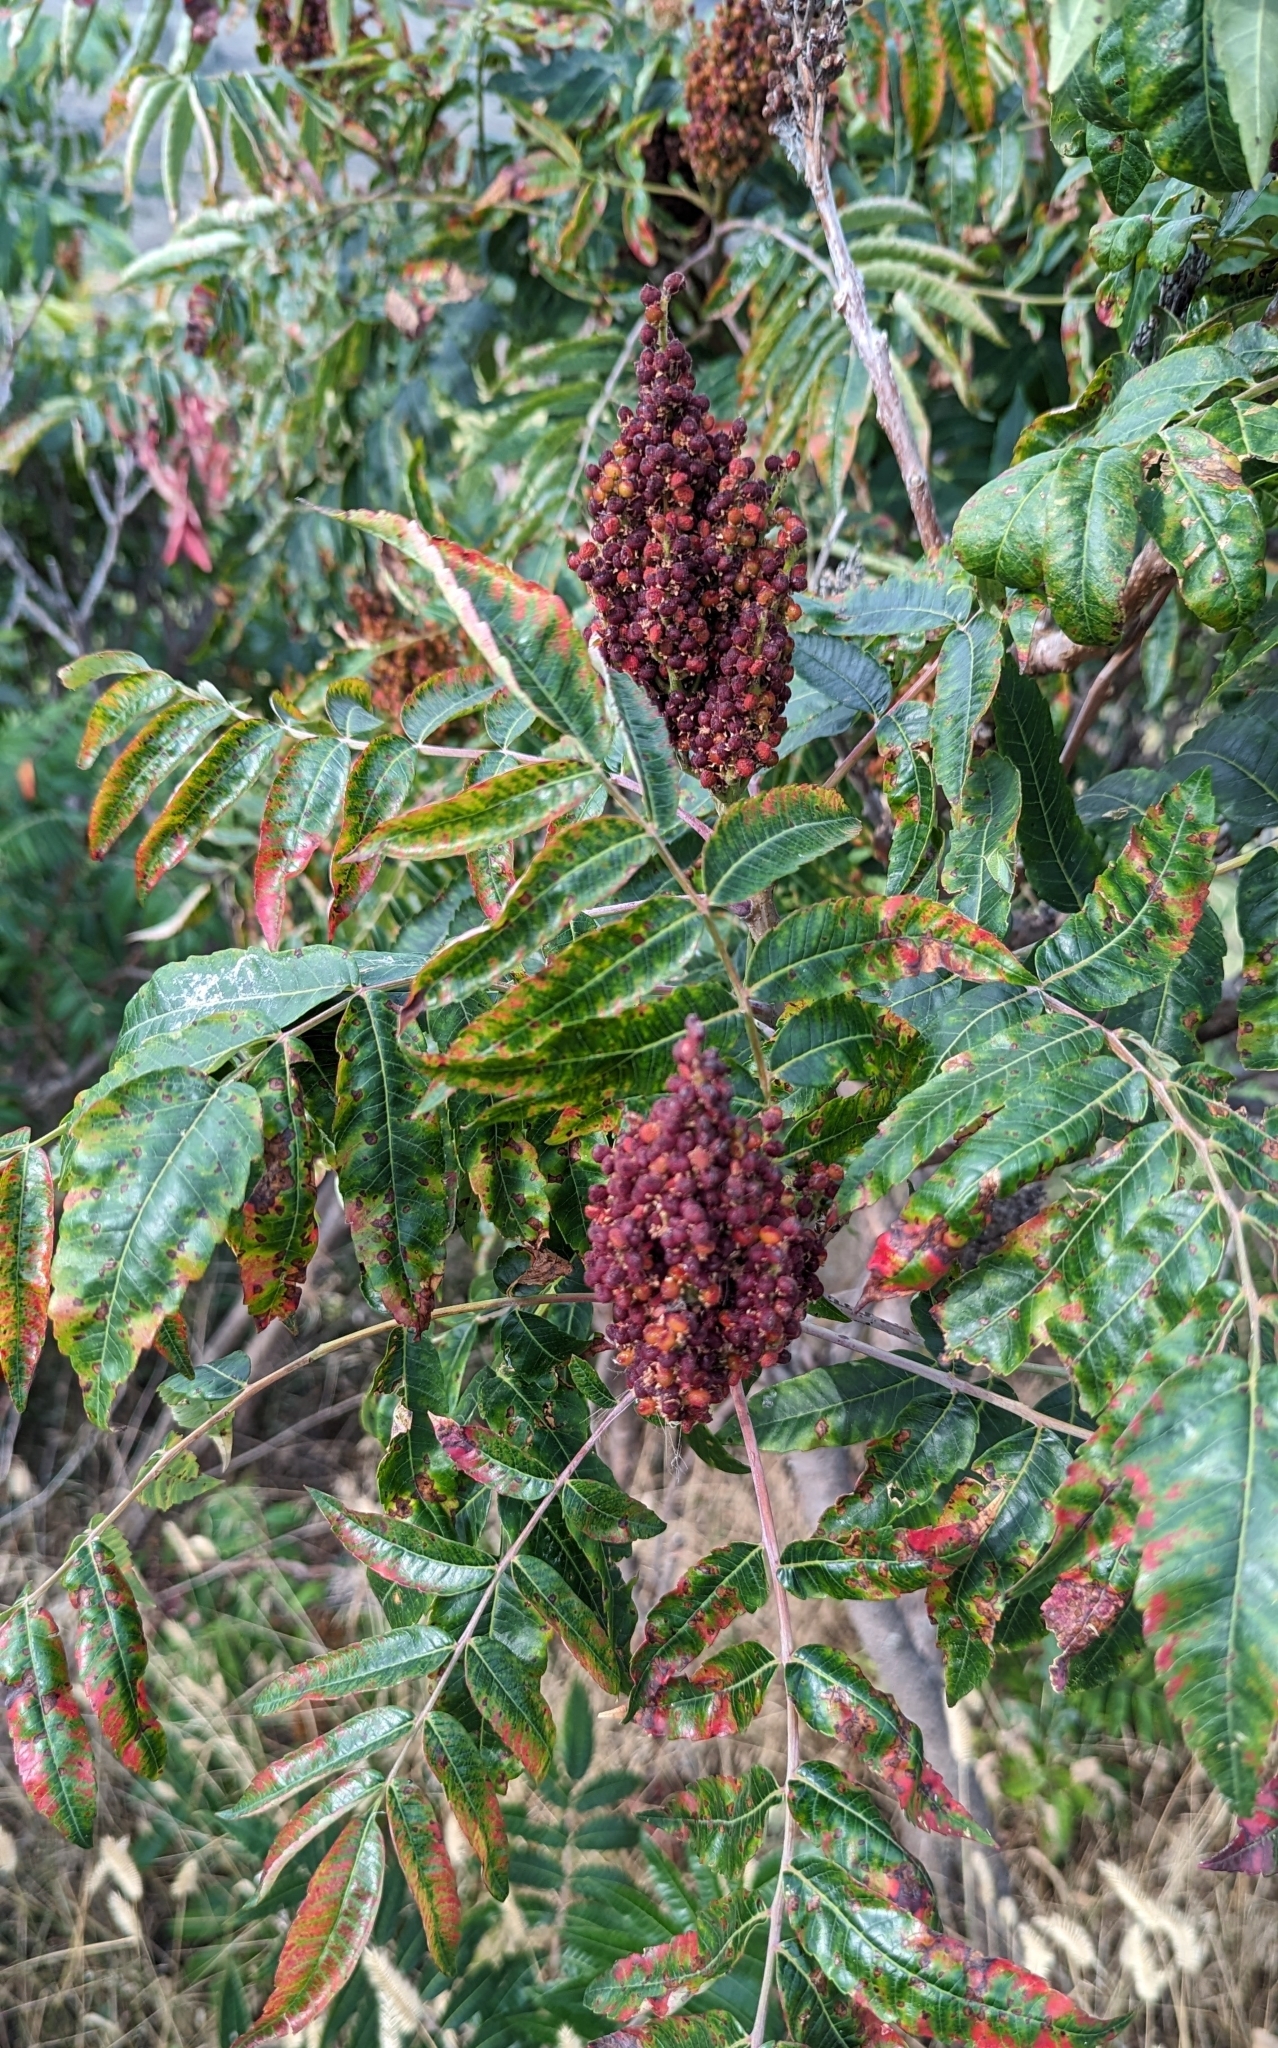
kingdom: Plantae
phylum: Tracheophyta
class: Magnoliopsida
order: Sapindales
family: Anacardiaceae
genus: Rhus
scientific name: Rhus glabra
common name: Scarlet sumac
